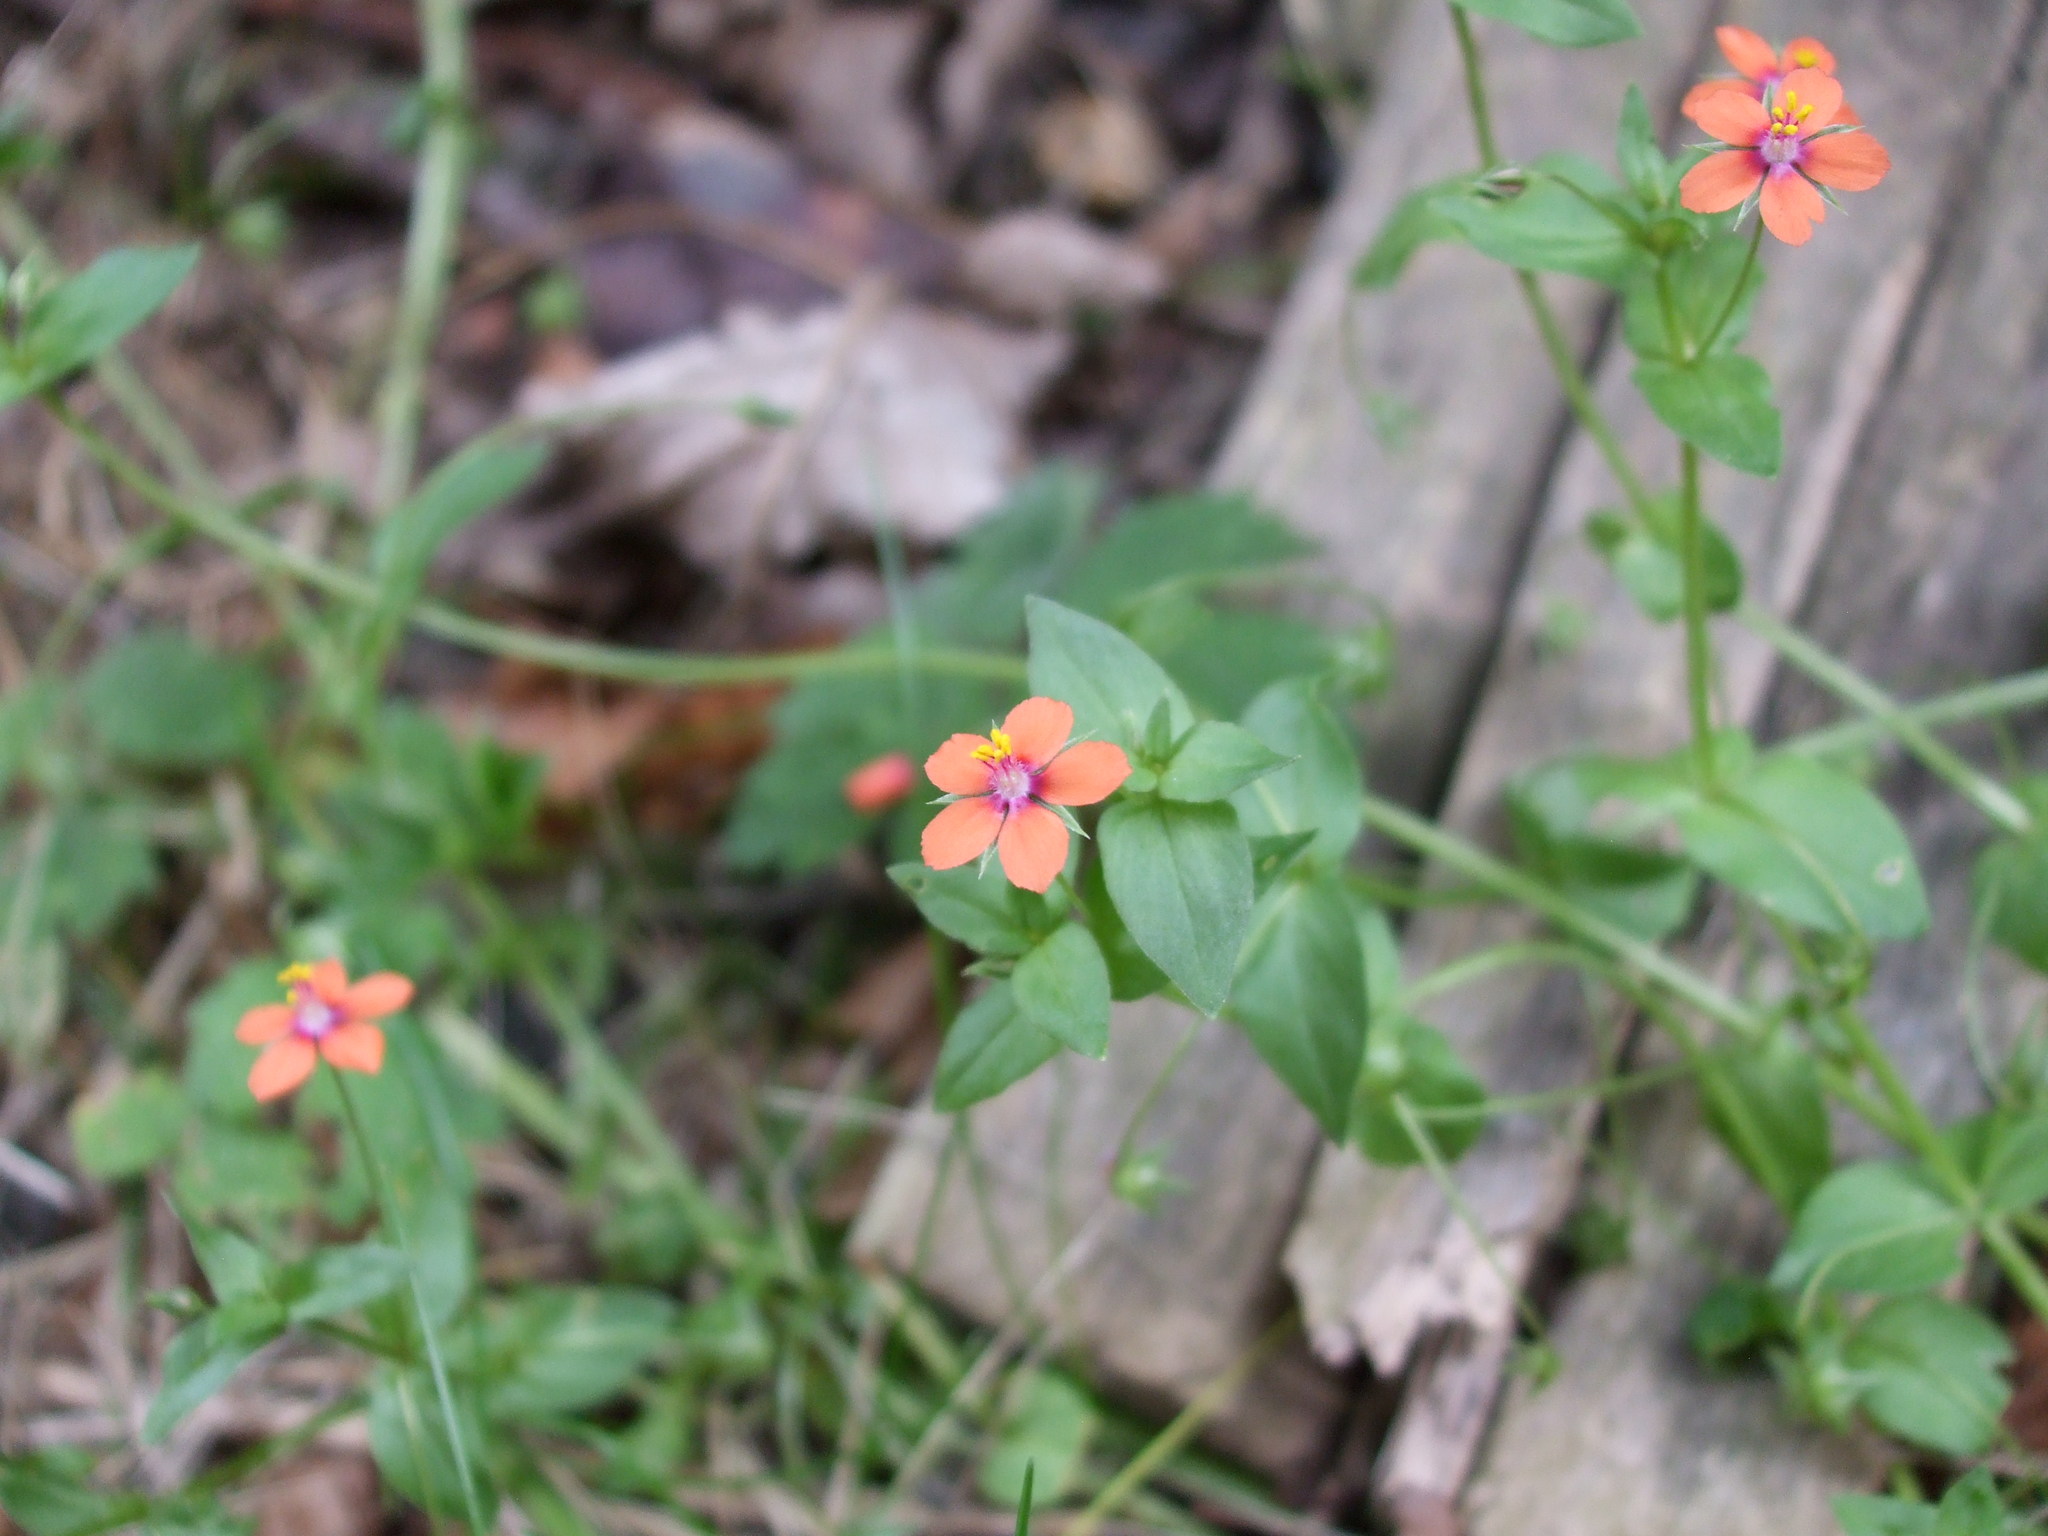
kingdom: Plantae
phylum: Tracheophyta
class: Magnoliopsida
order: Ericales
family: Primulaceae
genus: Lysimachia
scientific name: Lysimachia arvensis
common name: Scarlet pimpernel
